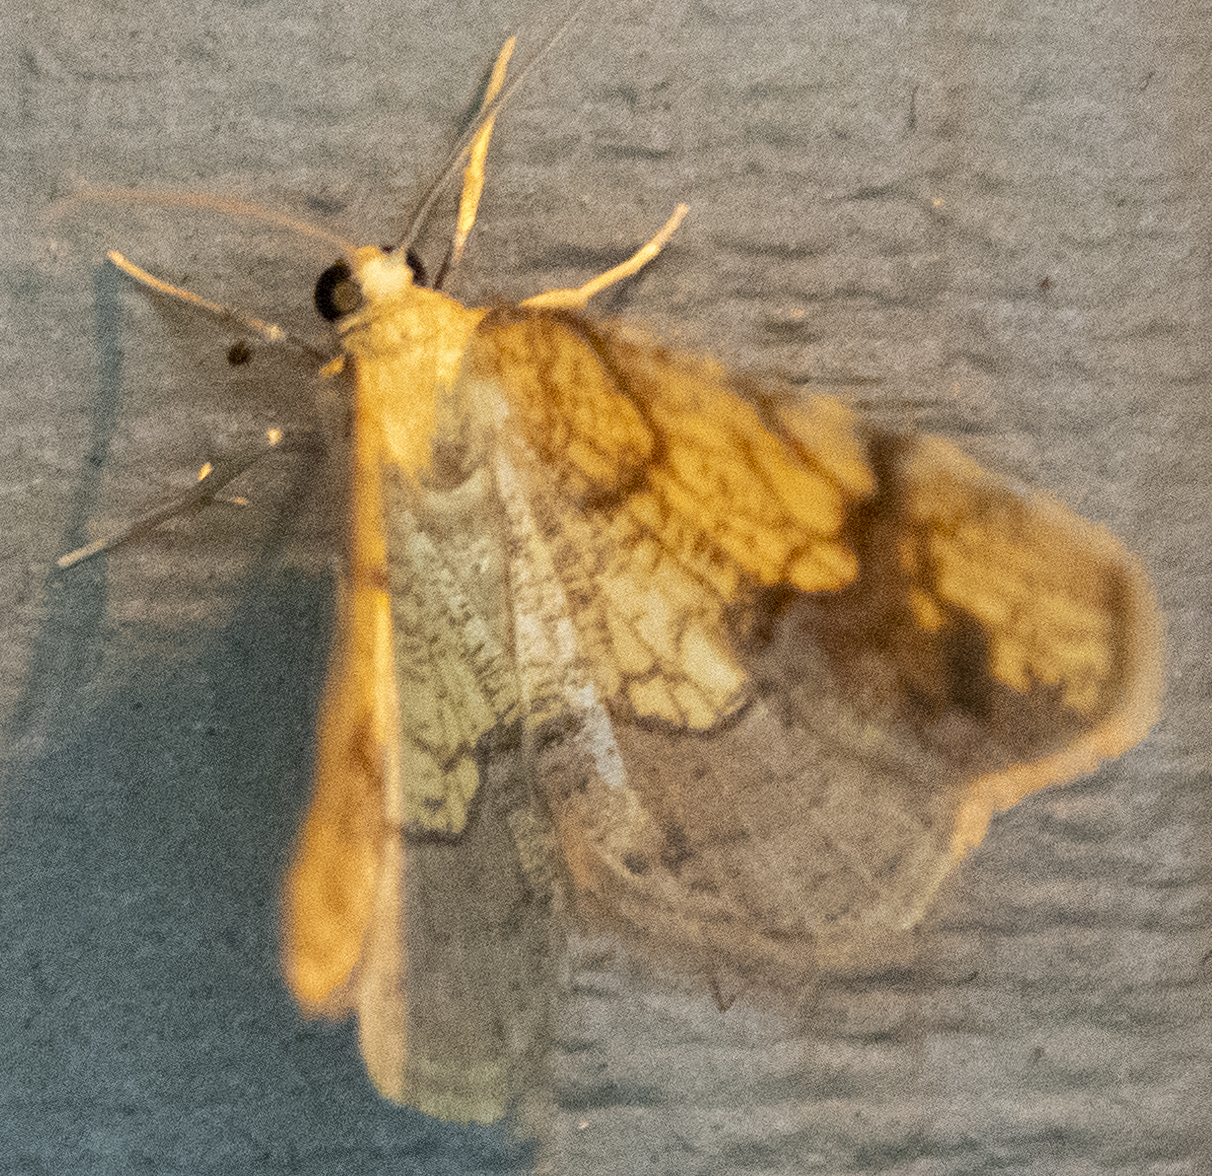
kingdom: Animalia
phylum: Arthropoda
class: Insecta
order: Lepidoptera
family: Geometridae
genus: Nematocampa
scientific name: Nematocampa resistaria
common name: Horned spanworm moth
